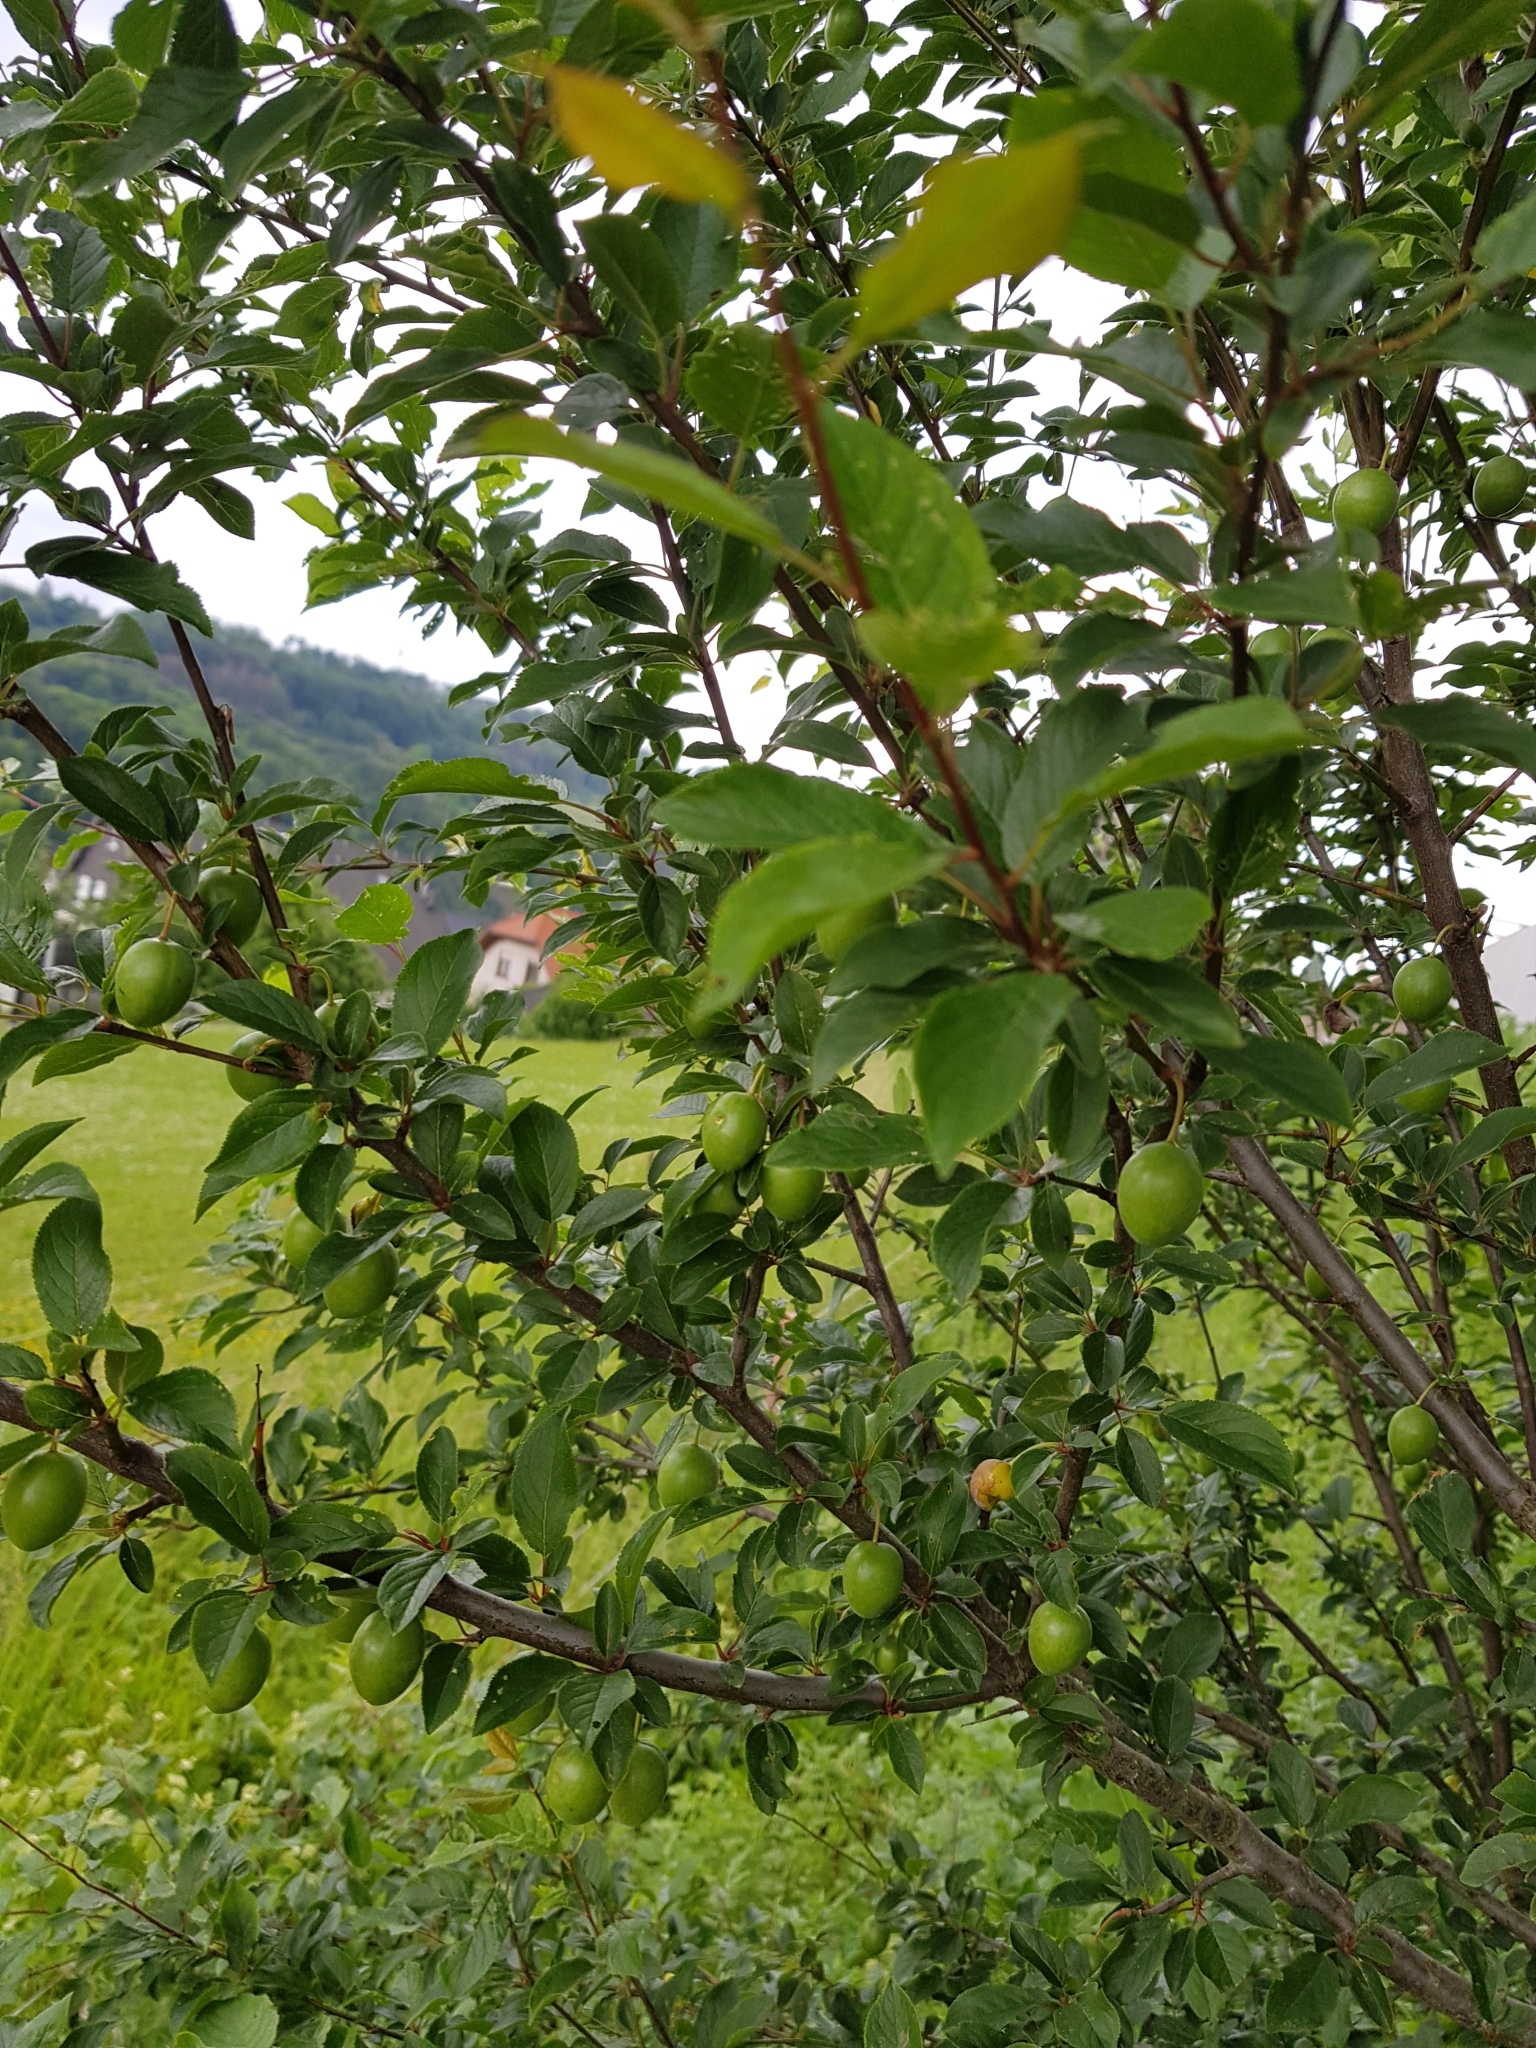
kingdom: Plantae
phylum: Tracheophyta
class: Magnoliopsida
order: Rosales
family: Rosaceae
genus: Prunus
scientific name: Prunus cerasifera
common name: Cherry plum
